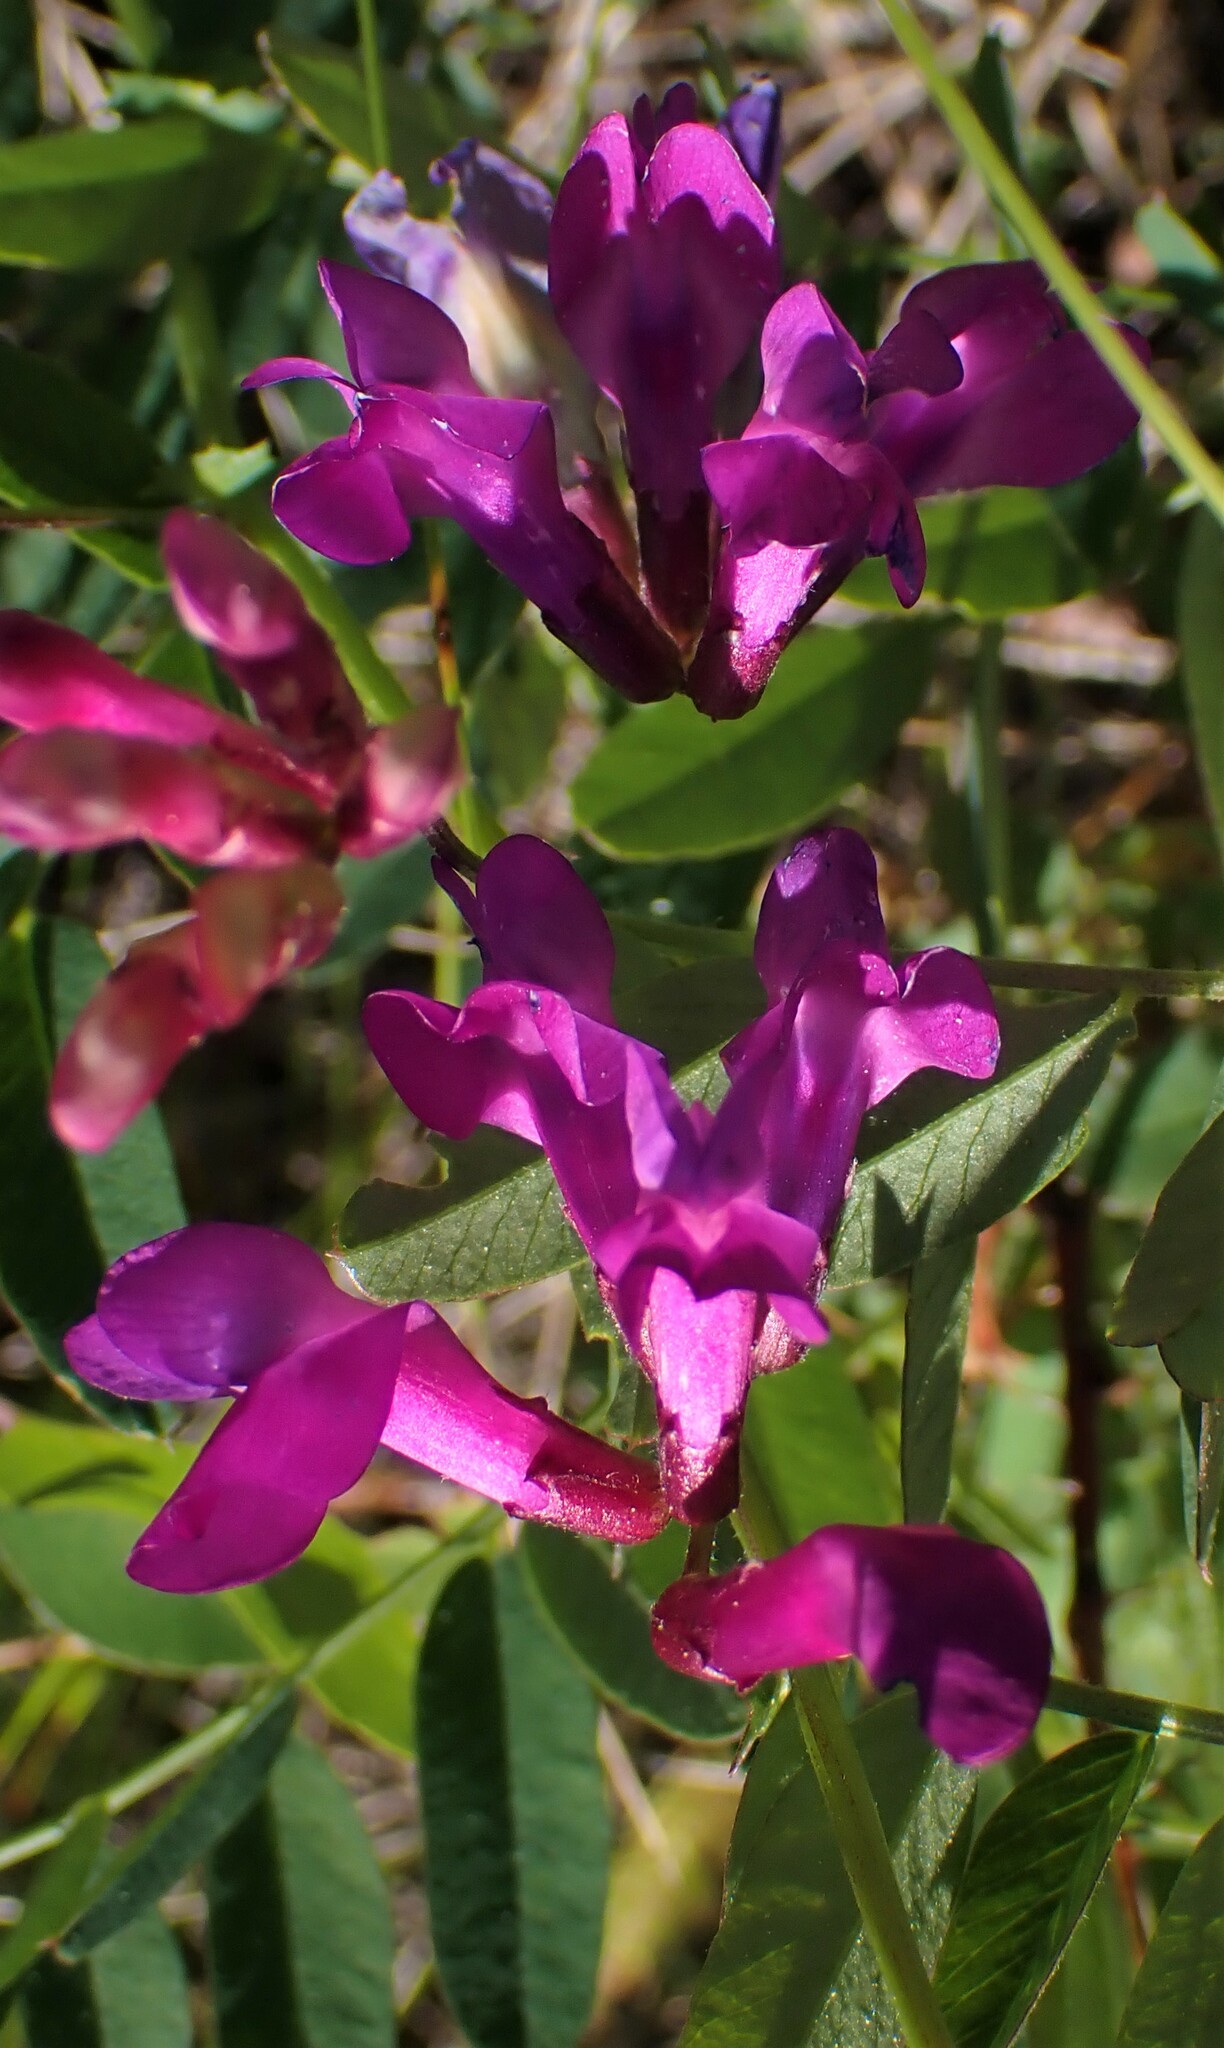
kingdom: Plantae
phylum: Tracheophyta
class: Magnoliopsida
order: Fabales
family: Fabaceae
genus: Vicia
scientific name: Vicia americana
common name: American vetch
